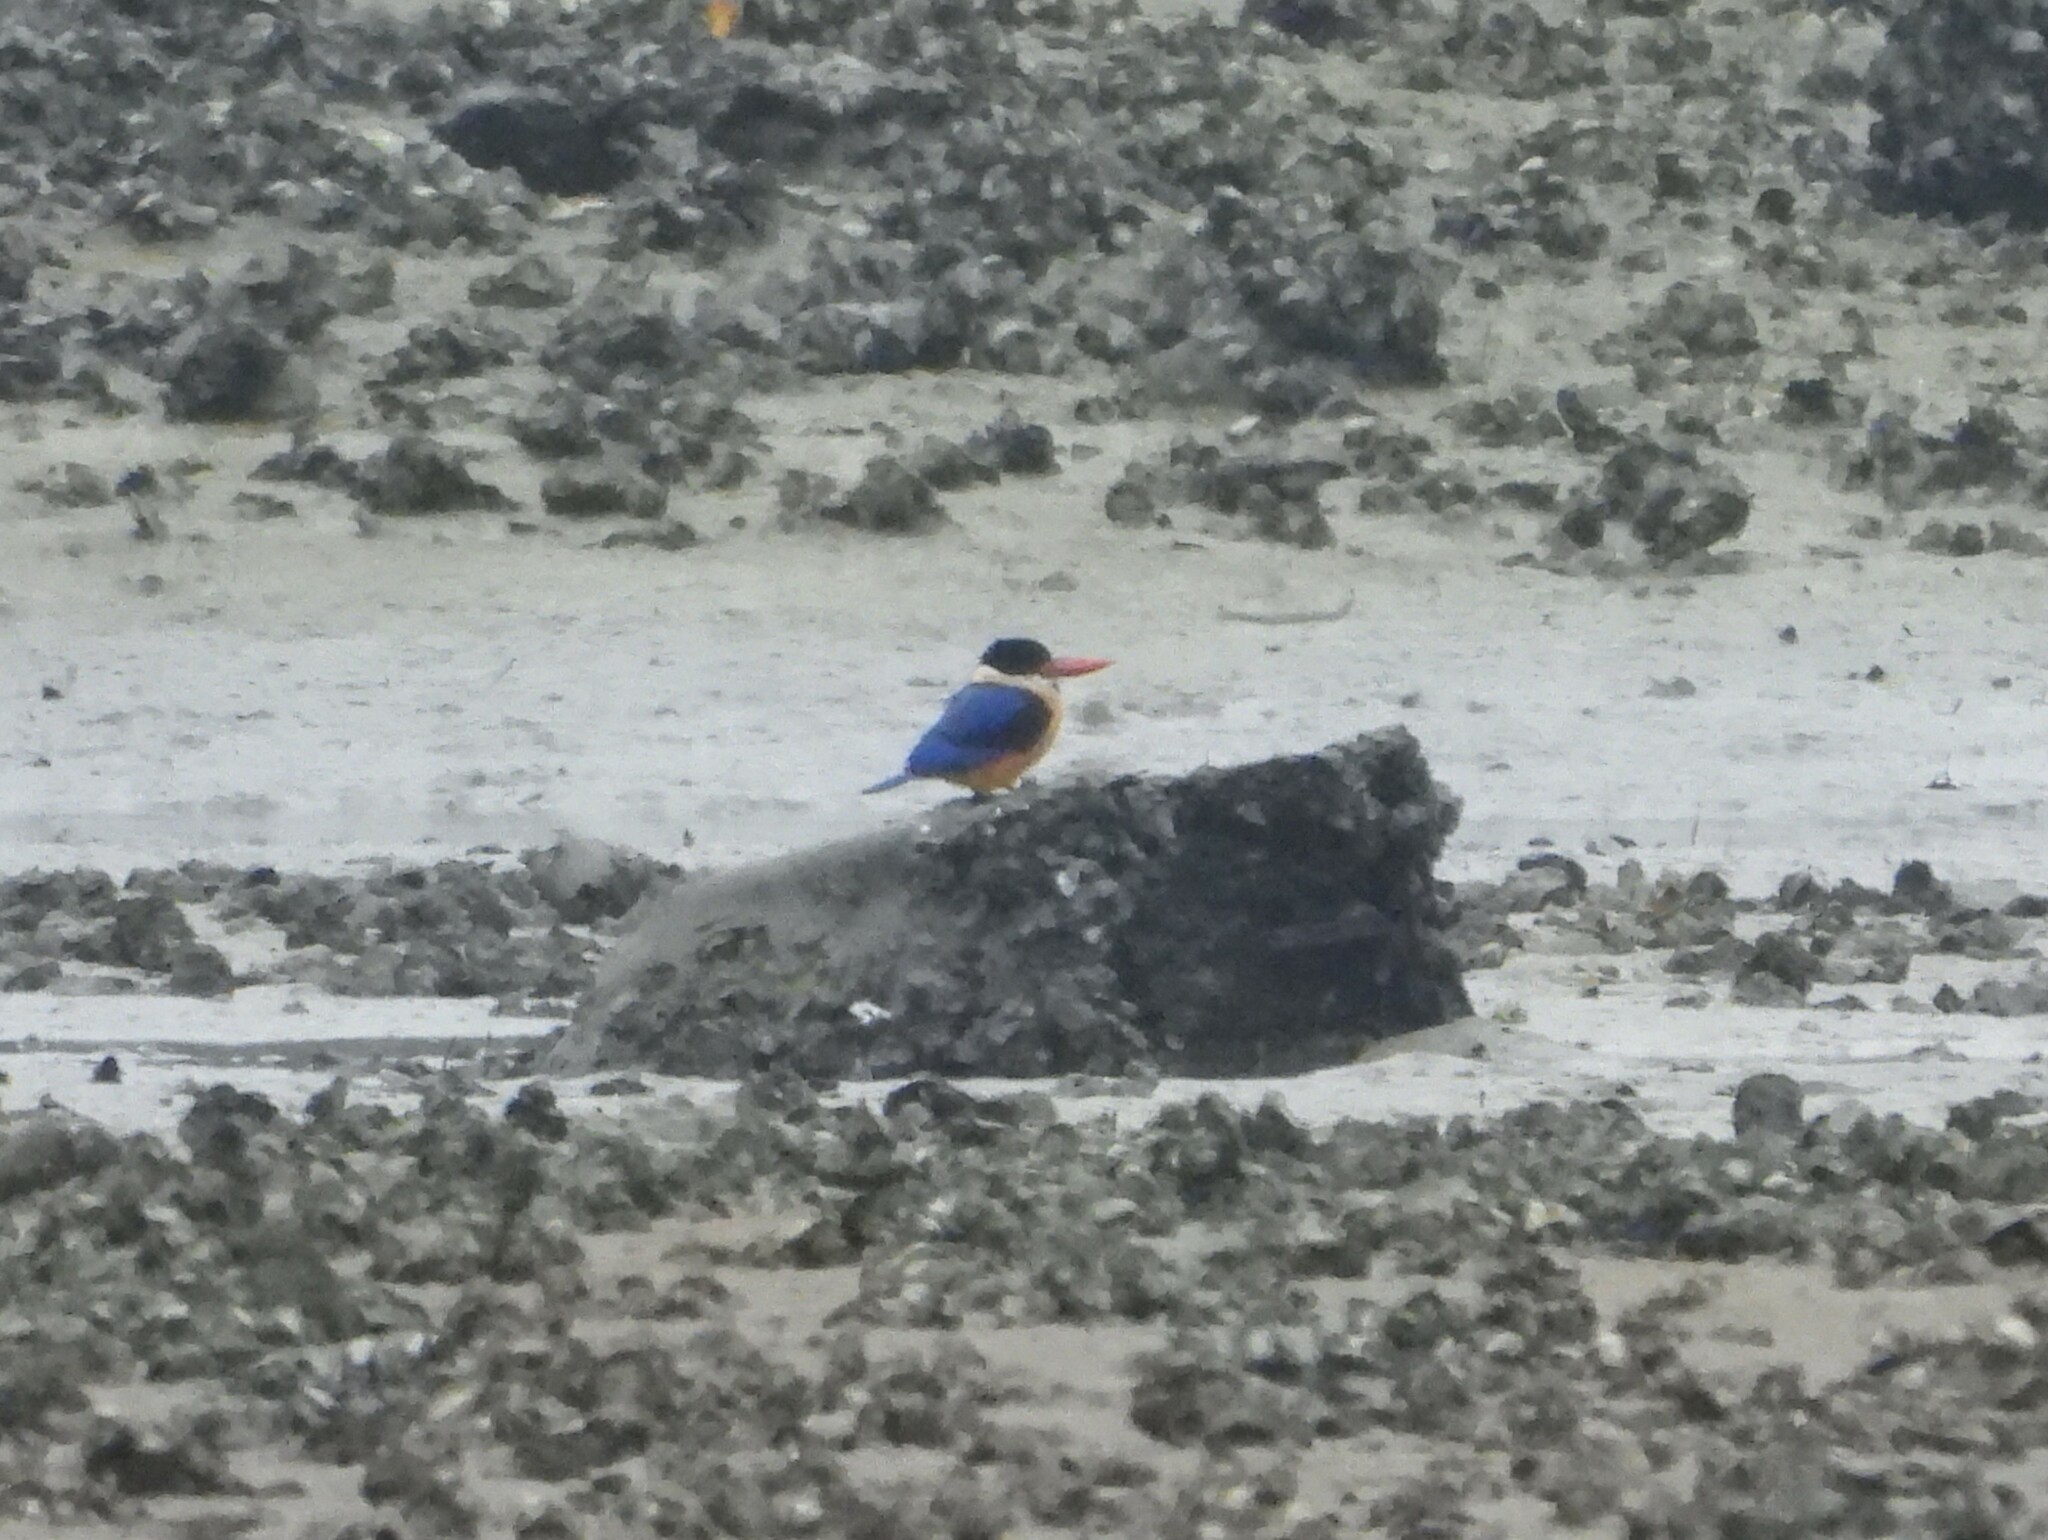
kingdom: Animalia
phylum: Chordata
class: Aves
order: Coraciiformes
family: Alcedinidae
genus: Halcyon
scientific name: Halcyon pileata
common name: Black-capped kingfisher
